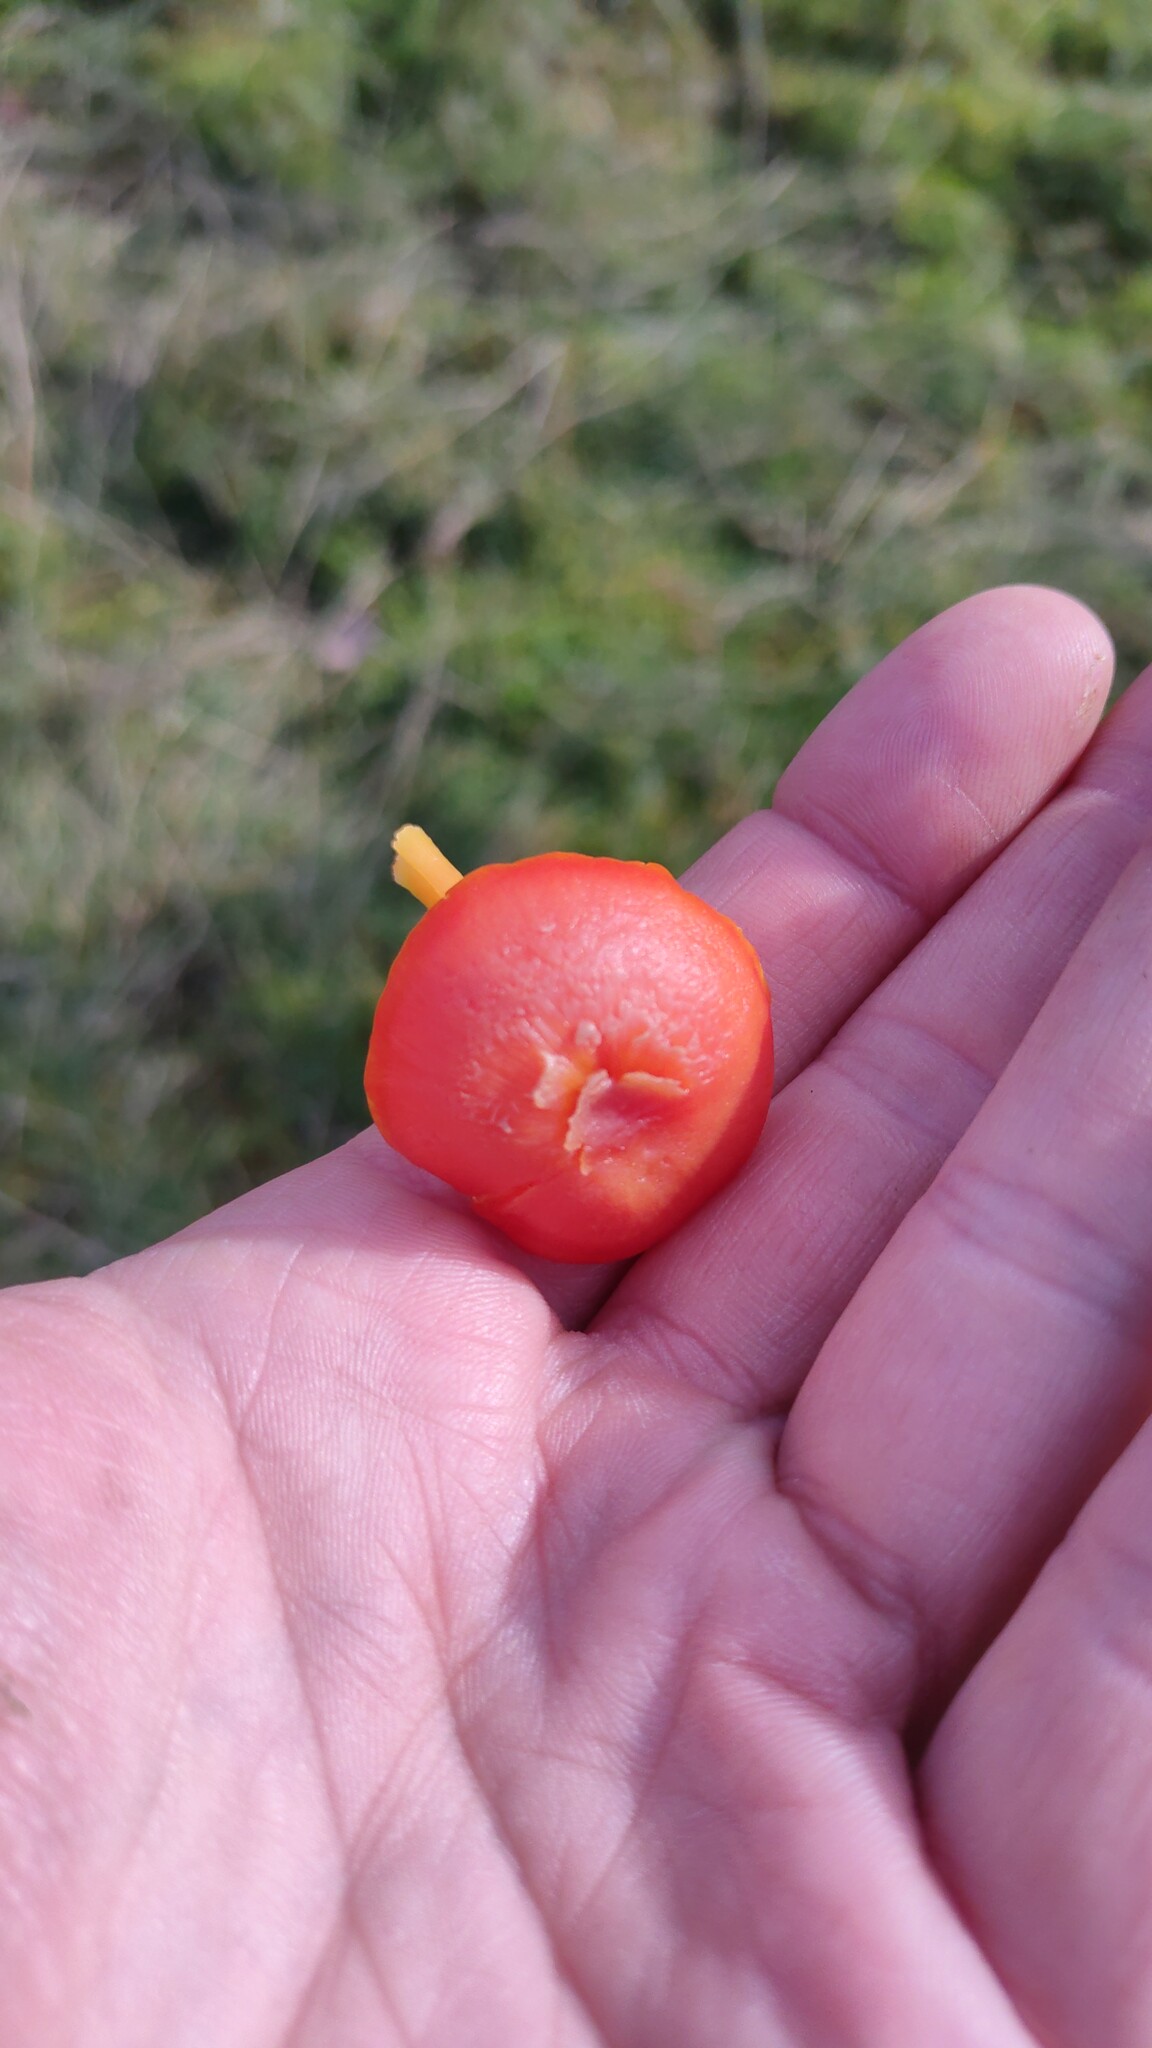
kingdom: Fungi
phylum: Basidiomycota
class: Agaricomycetes
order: Agaricales
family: Hygrophoraceae
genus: Hygrocybe
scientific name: Hygrocybe reidii
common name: Honey waxcap
